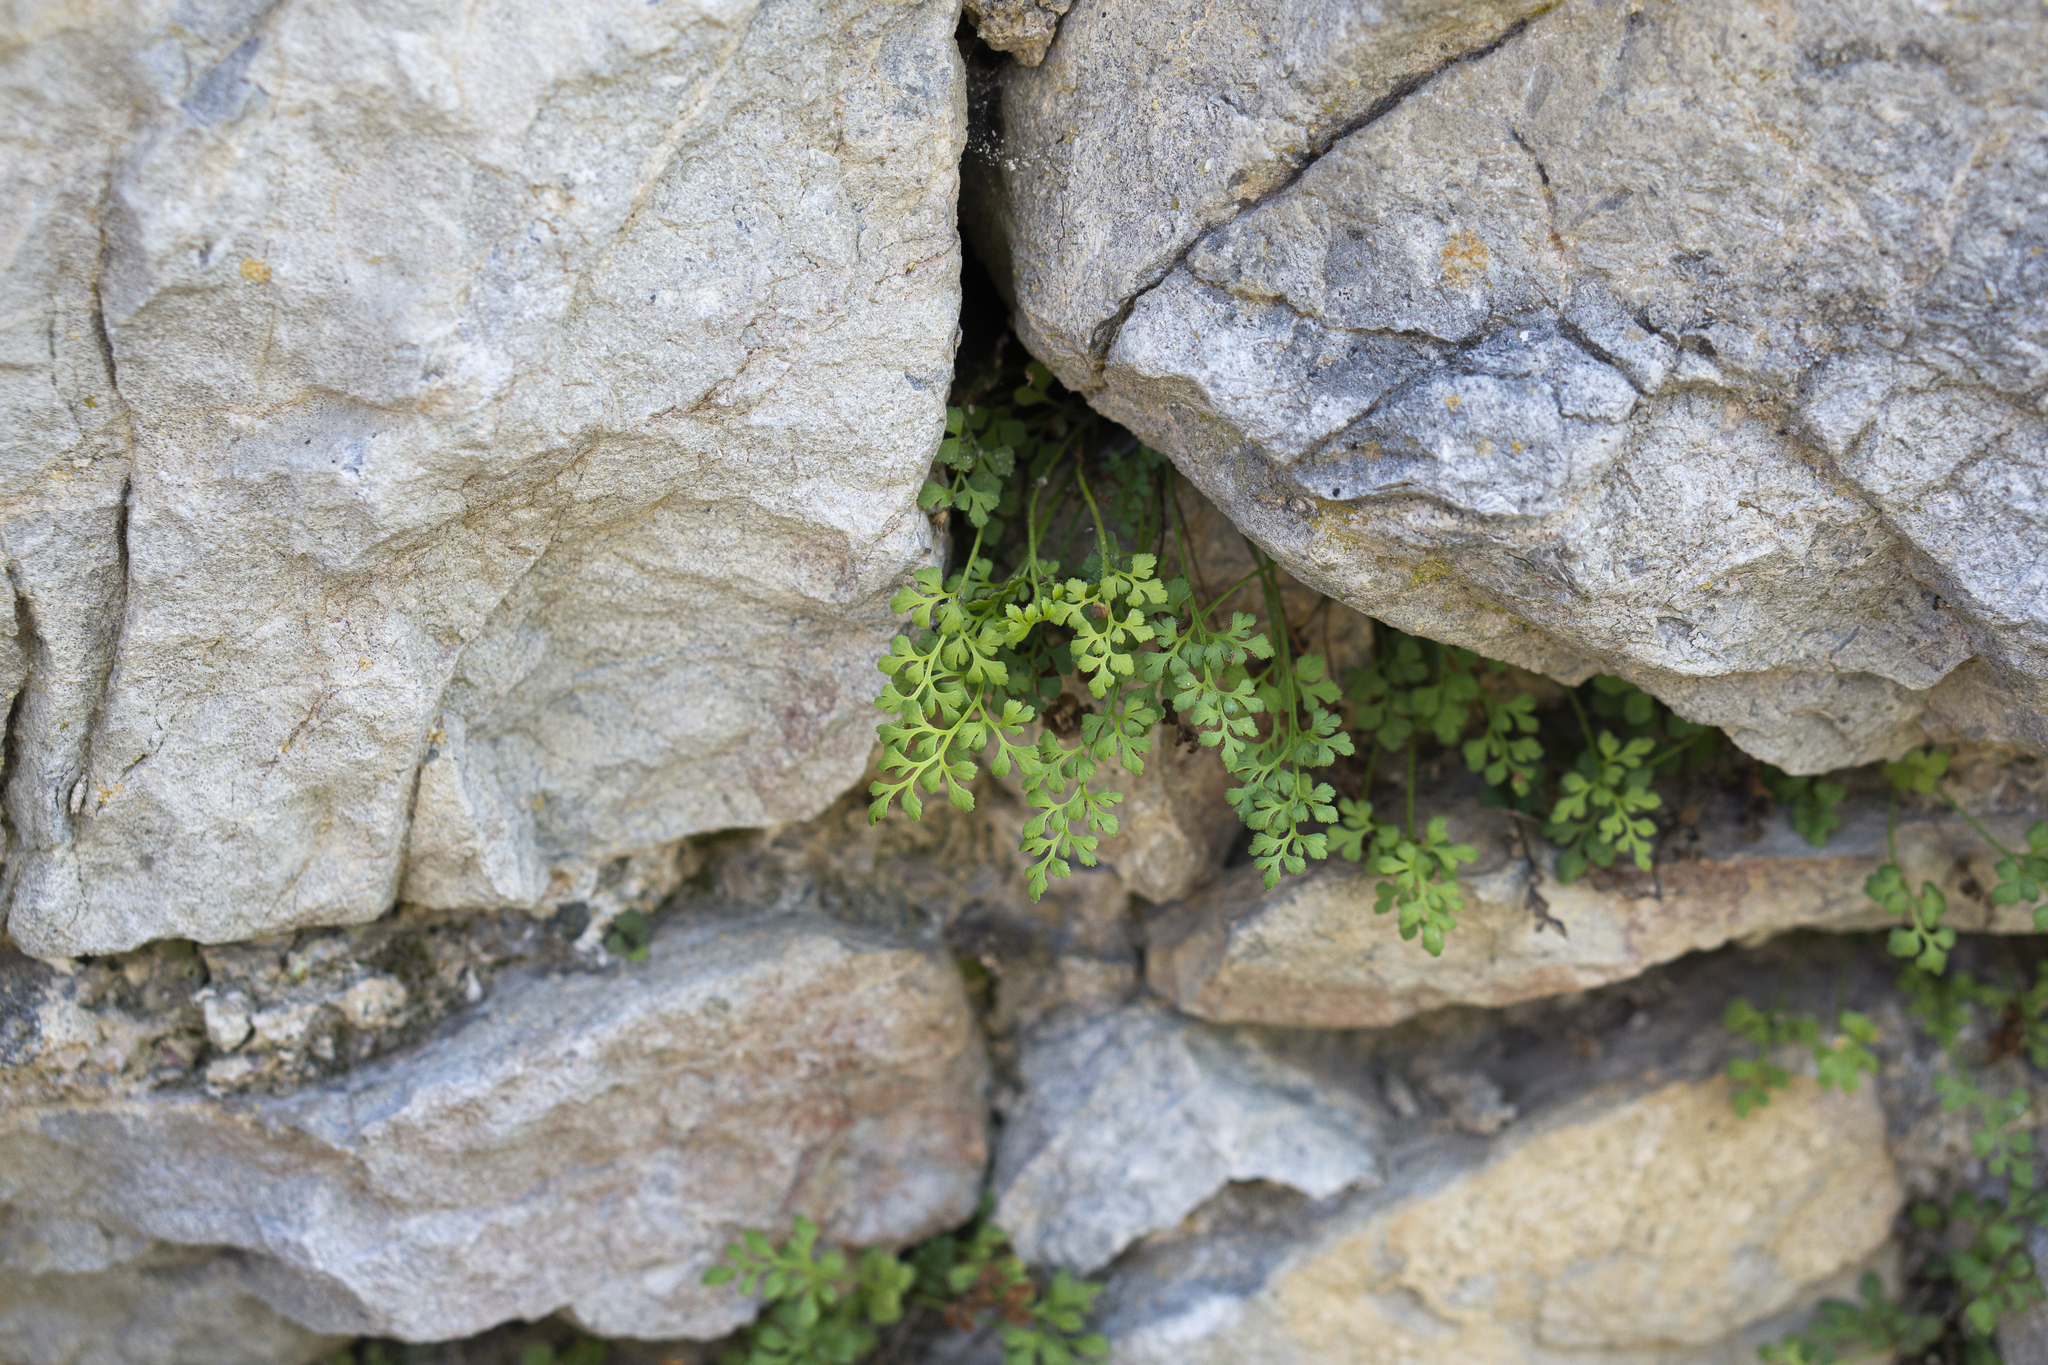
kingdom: Plantae
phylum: Tracheophyta
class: Polypodiopsida
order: Polypodiales
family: Aspleniaceae
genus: Asplenium
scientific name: Asplenium ruta-muraria
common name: Wall-rue
